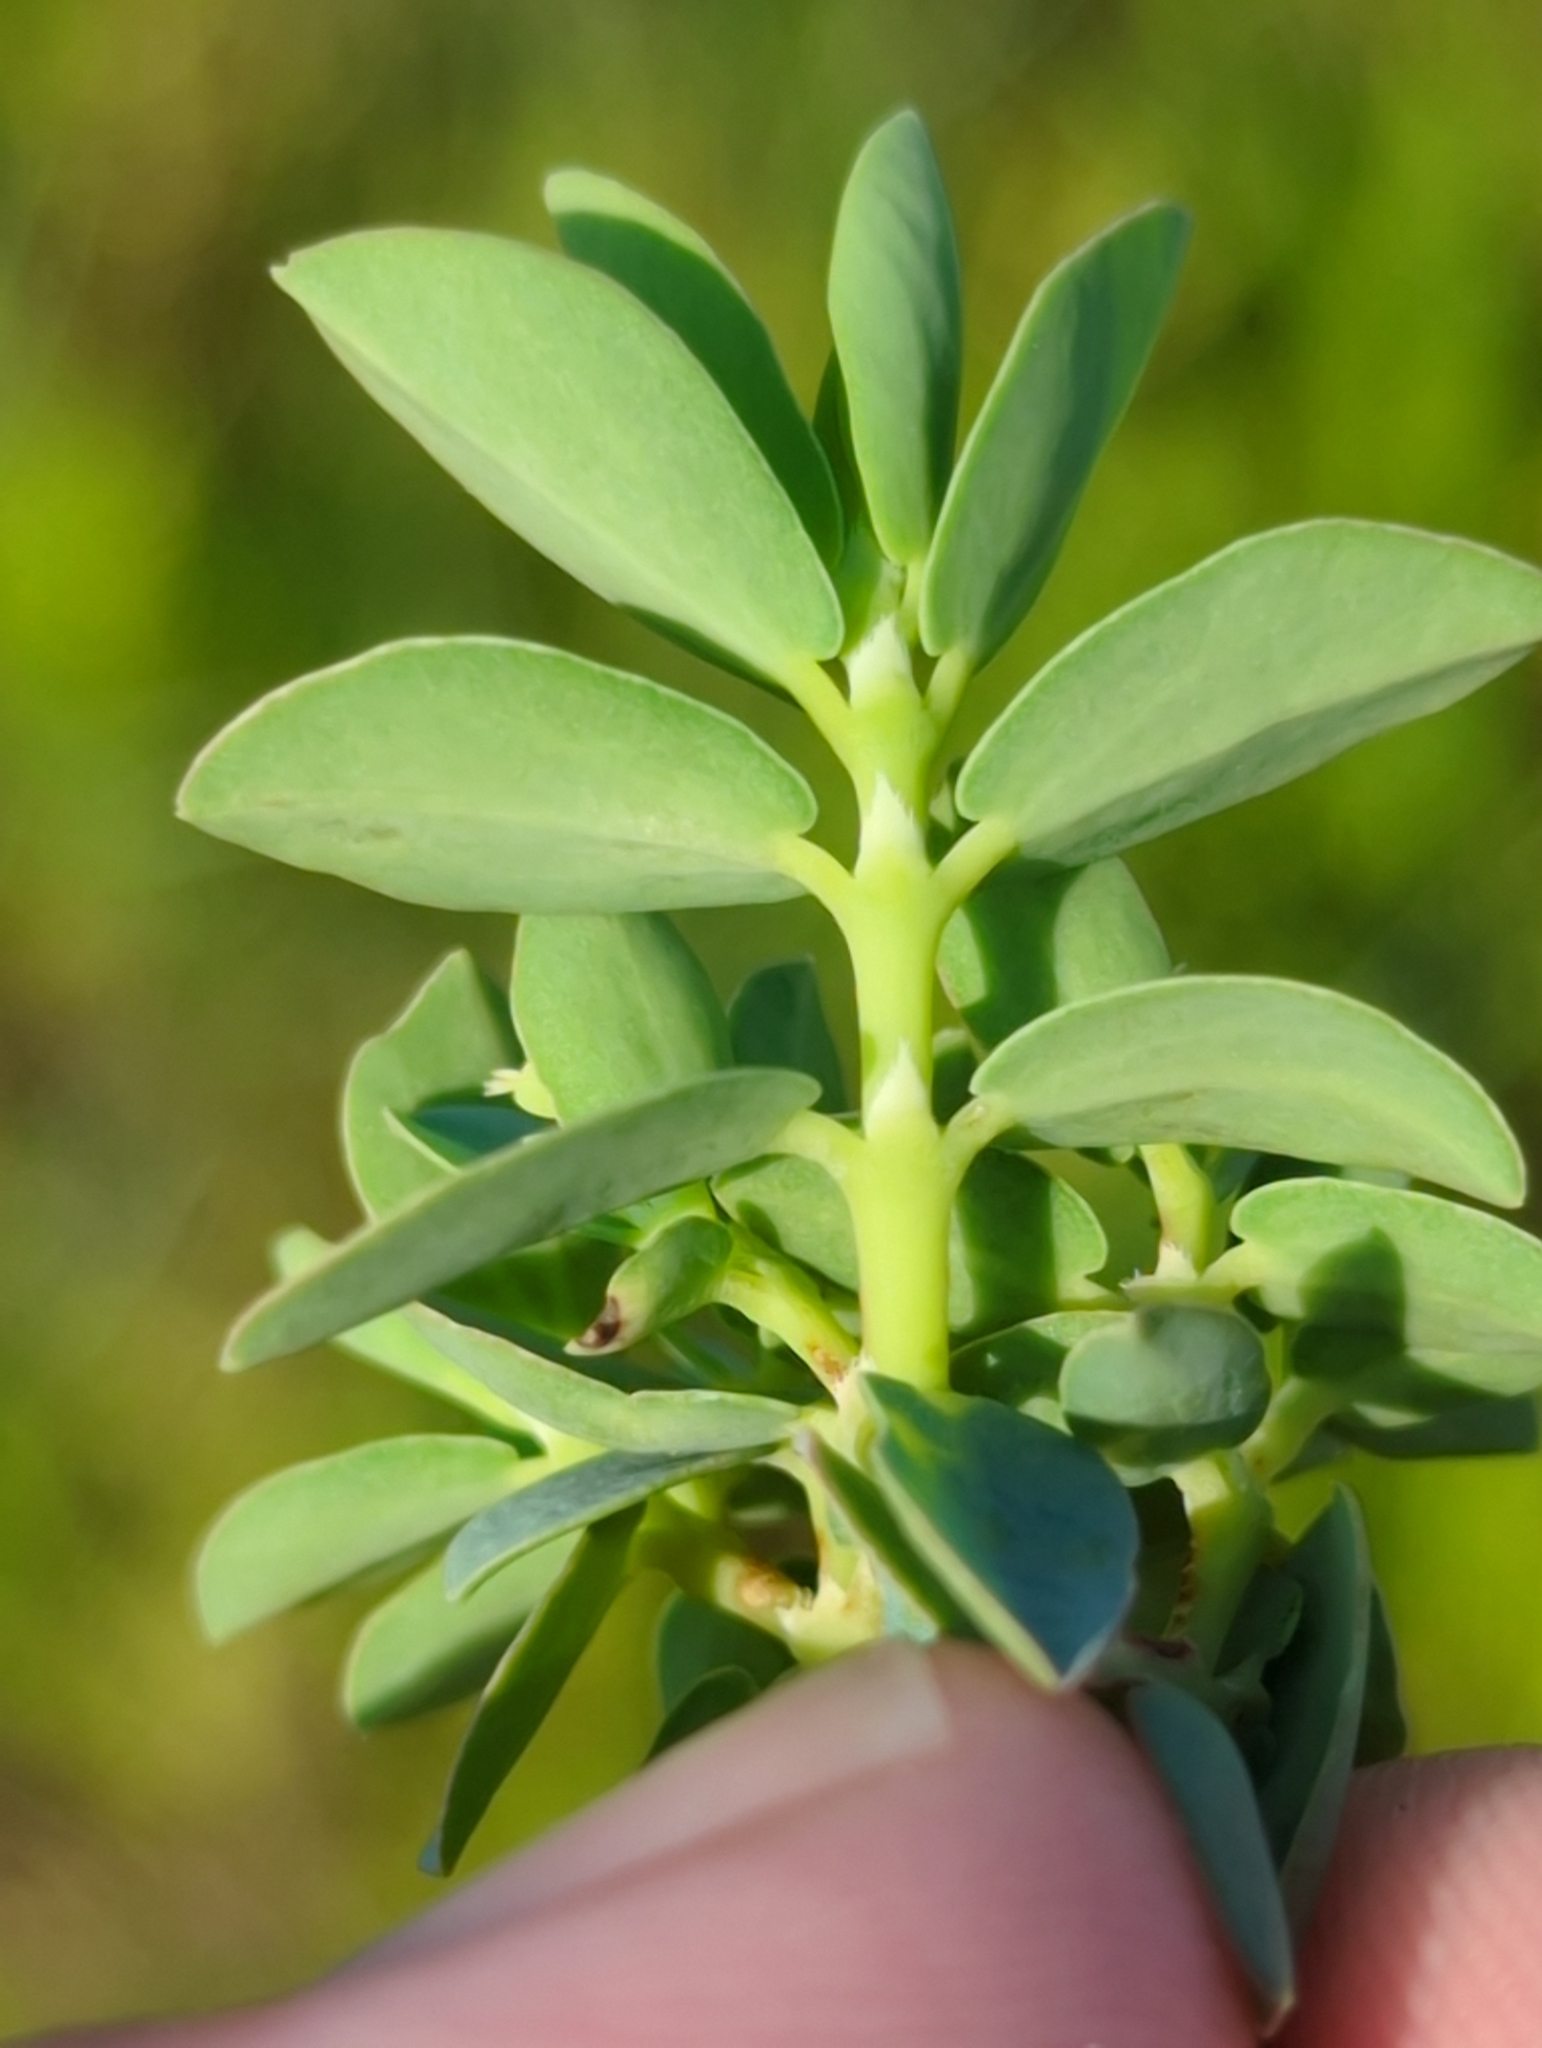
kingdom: Plantae
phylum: Tracheophyta
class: Magnoliopsida
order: Malpighiales
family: Euphorbiaceae
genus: Euphorbia
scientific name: Euphorbia mesembryanthemifolia
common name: Coastal beach sandmat
